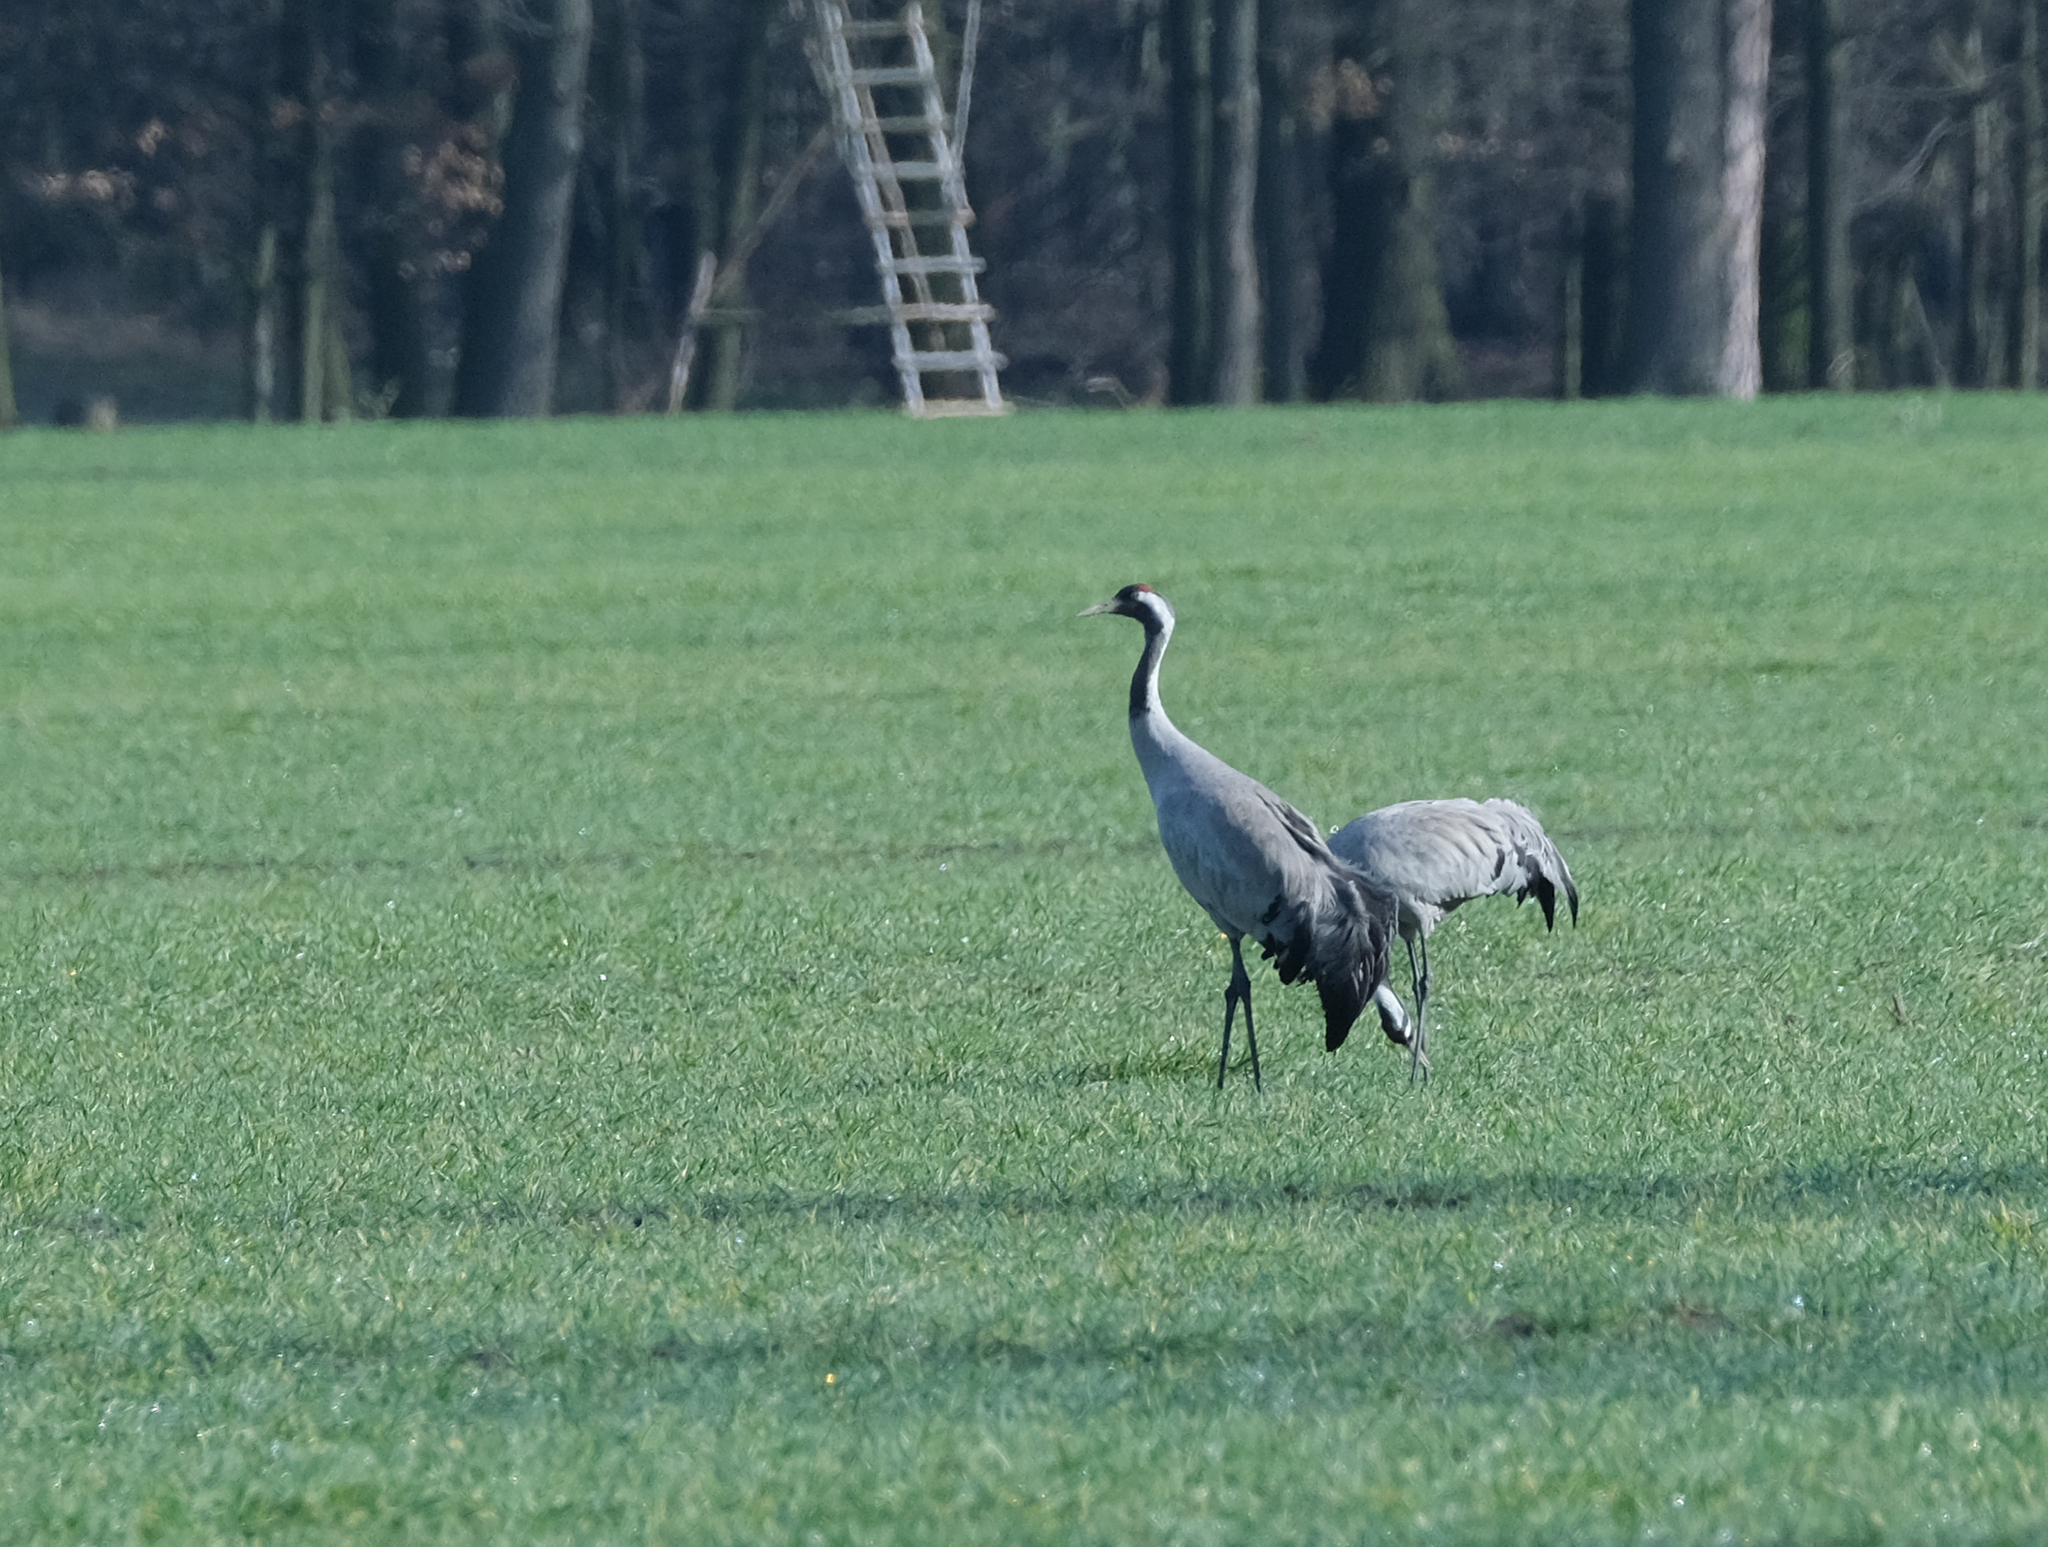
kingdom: Animalia
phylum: Chordata
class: Aves
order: Gruiformes
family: Gruidae
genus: Grus
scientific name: Grus grus
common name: Common crane
